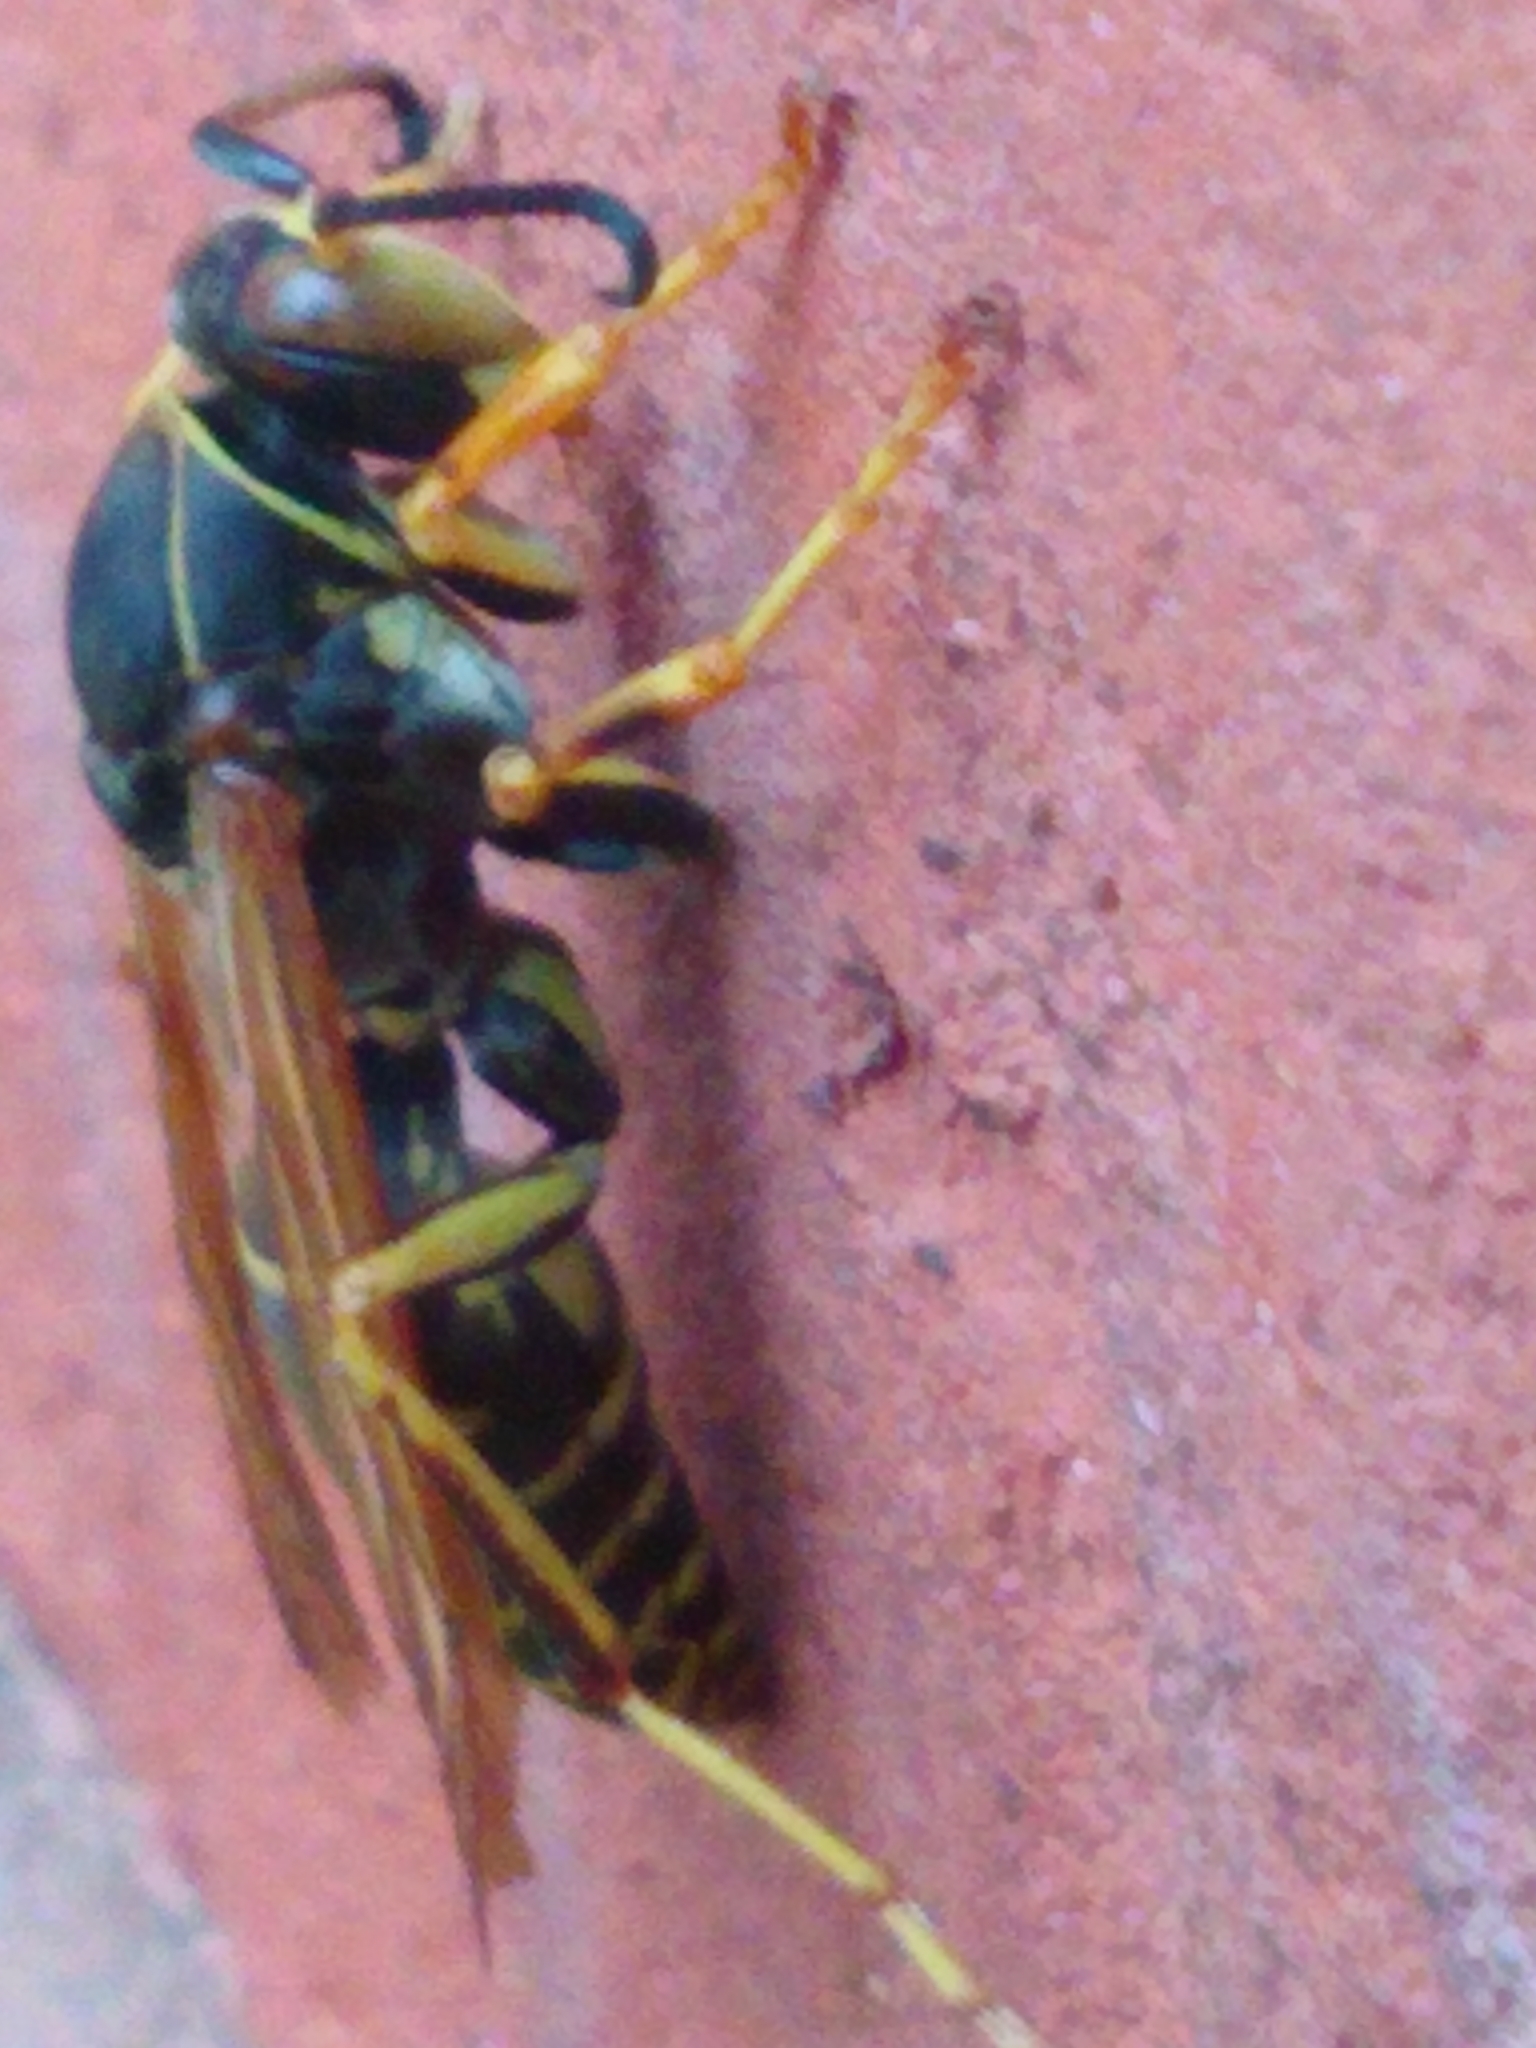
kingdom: Animalia
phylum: Arthropoda
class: Insecta
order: Hymenoptera
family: Eumenidae
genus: Polistes
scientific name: Polistes fuscatus
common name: Dark paper wasp
